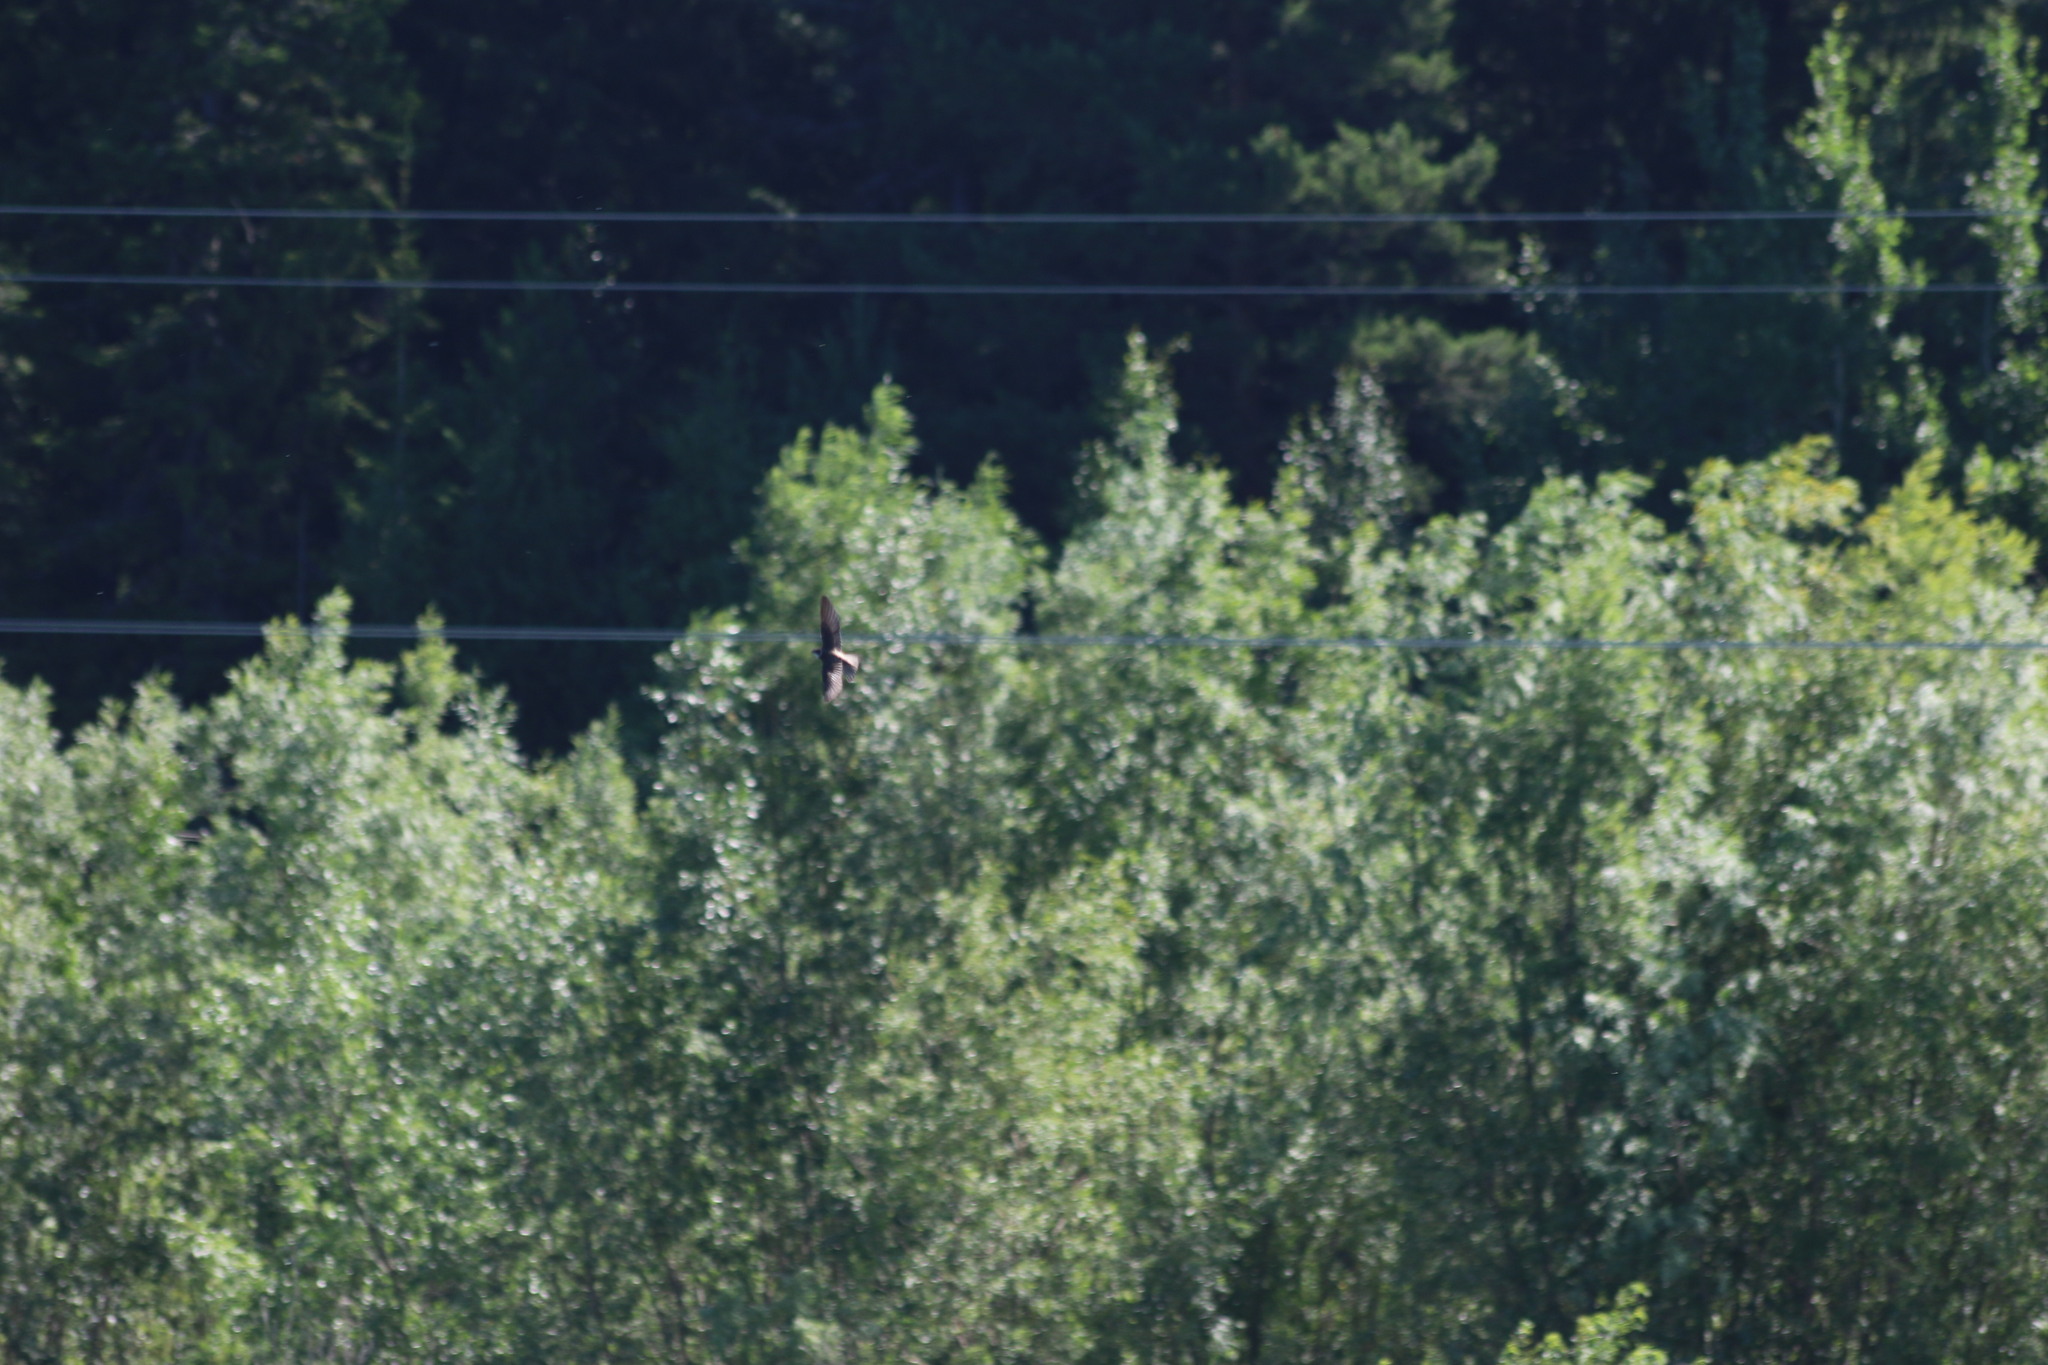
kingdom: Animalia
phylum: Chordata
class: Aves
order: Passeriformes
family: Hirundinidae
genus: Riparia
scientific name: Riparia riparia
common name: Sand martin
